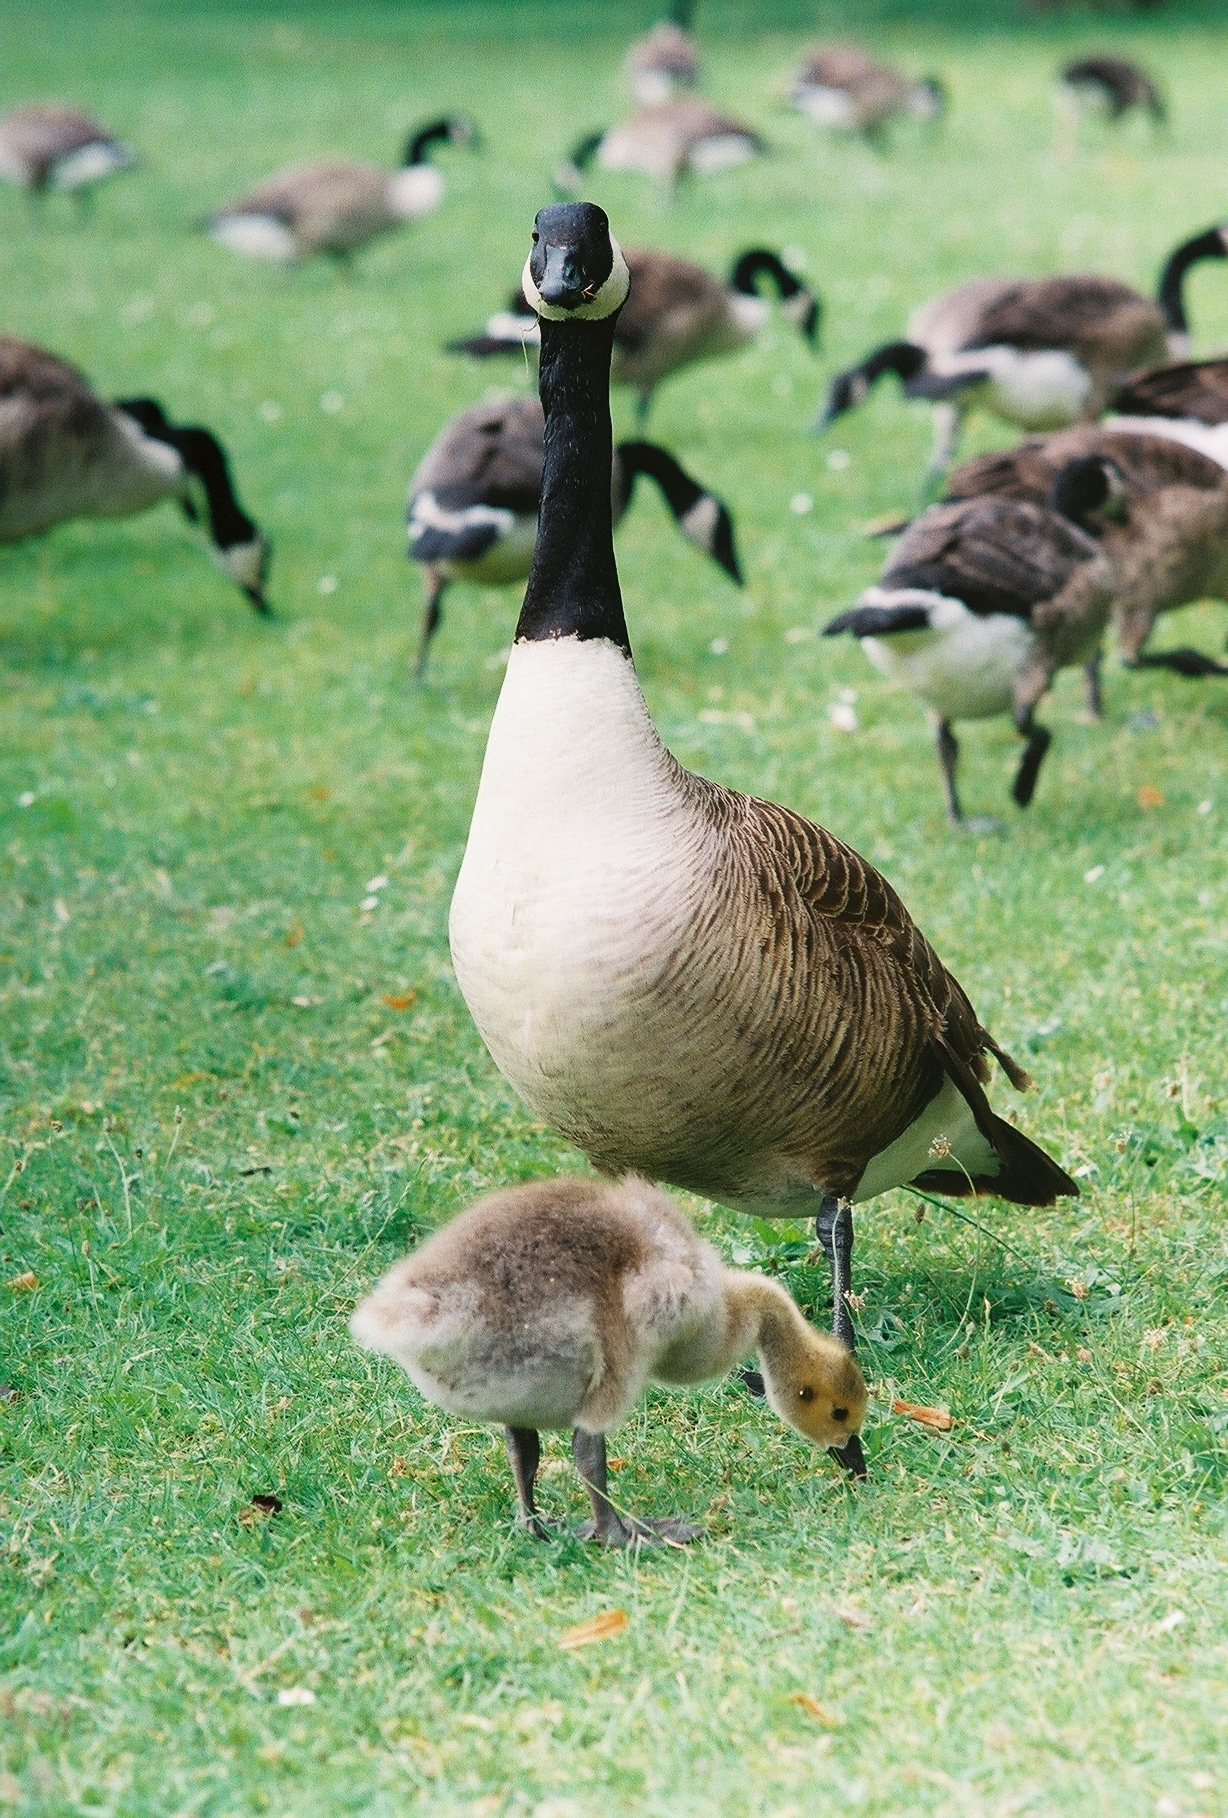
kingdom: Animalia
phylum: Chordata
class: Aves
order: Anseriformes
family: Anatidae
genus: Branta
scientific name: Branta canadensis
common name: Canada goose
